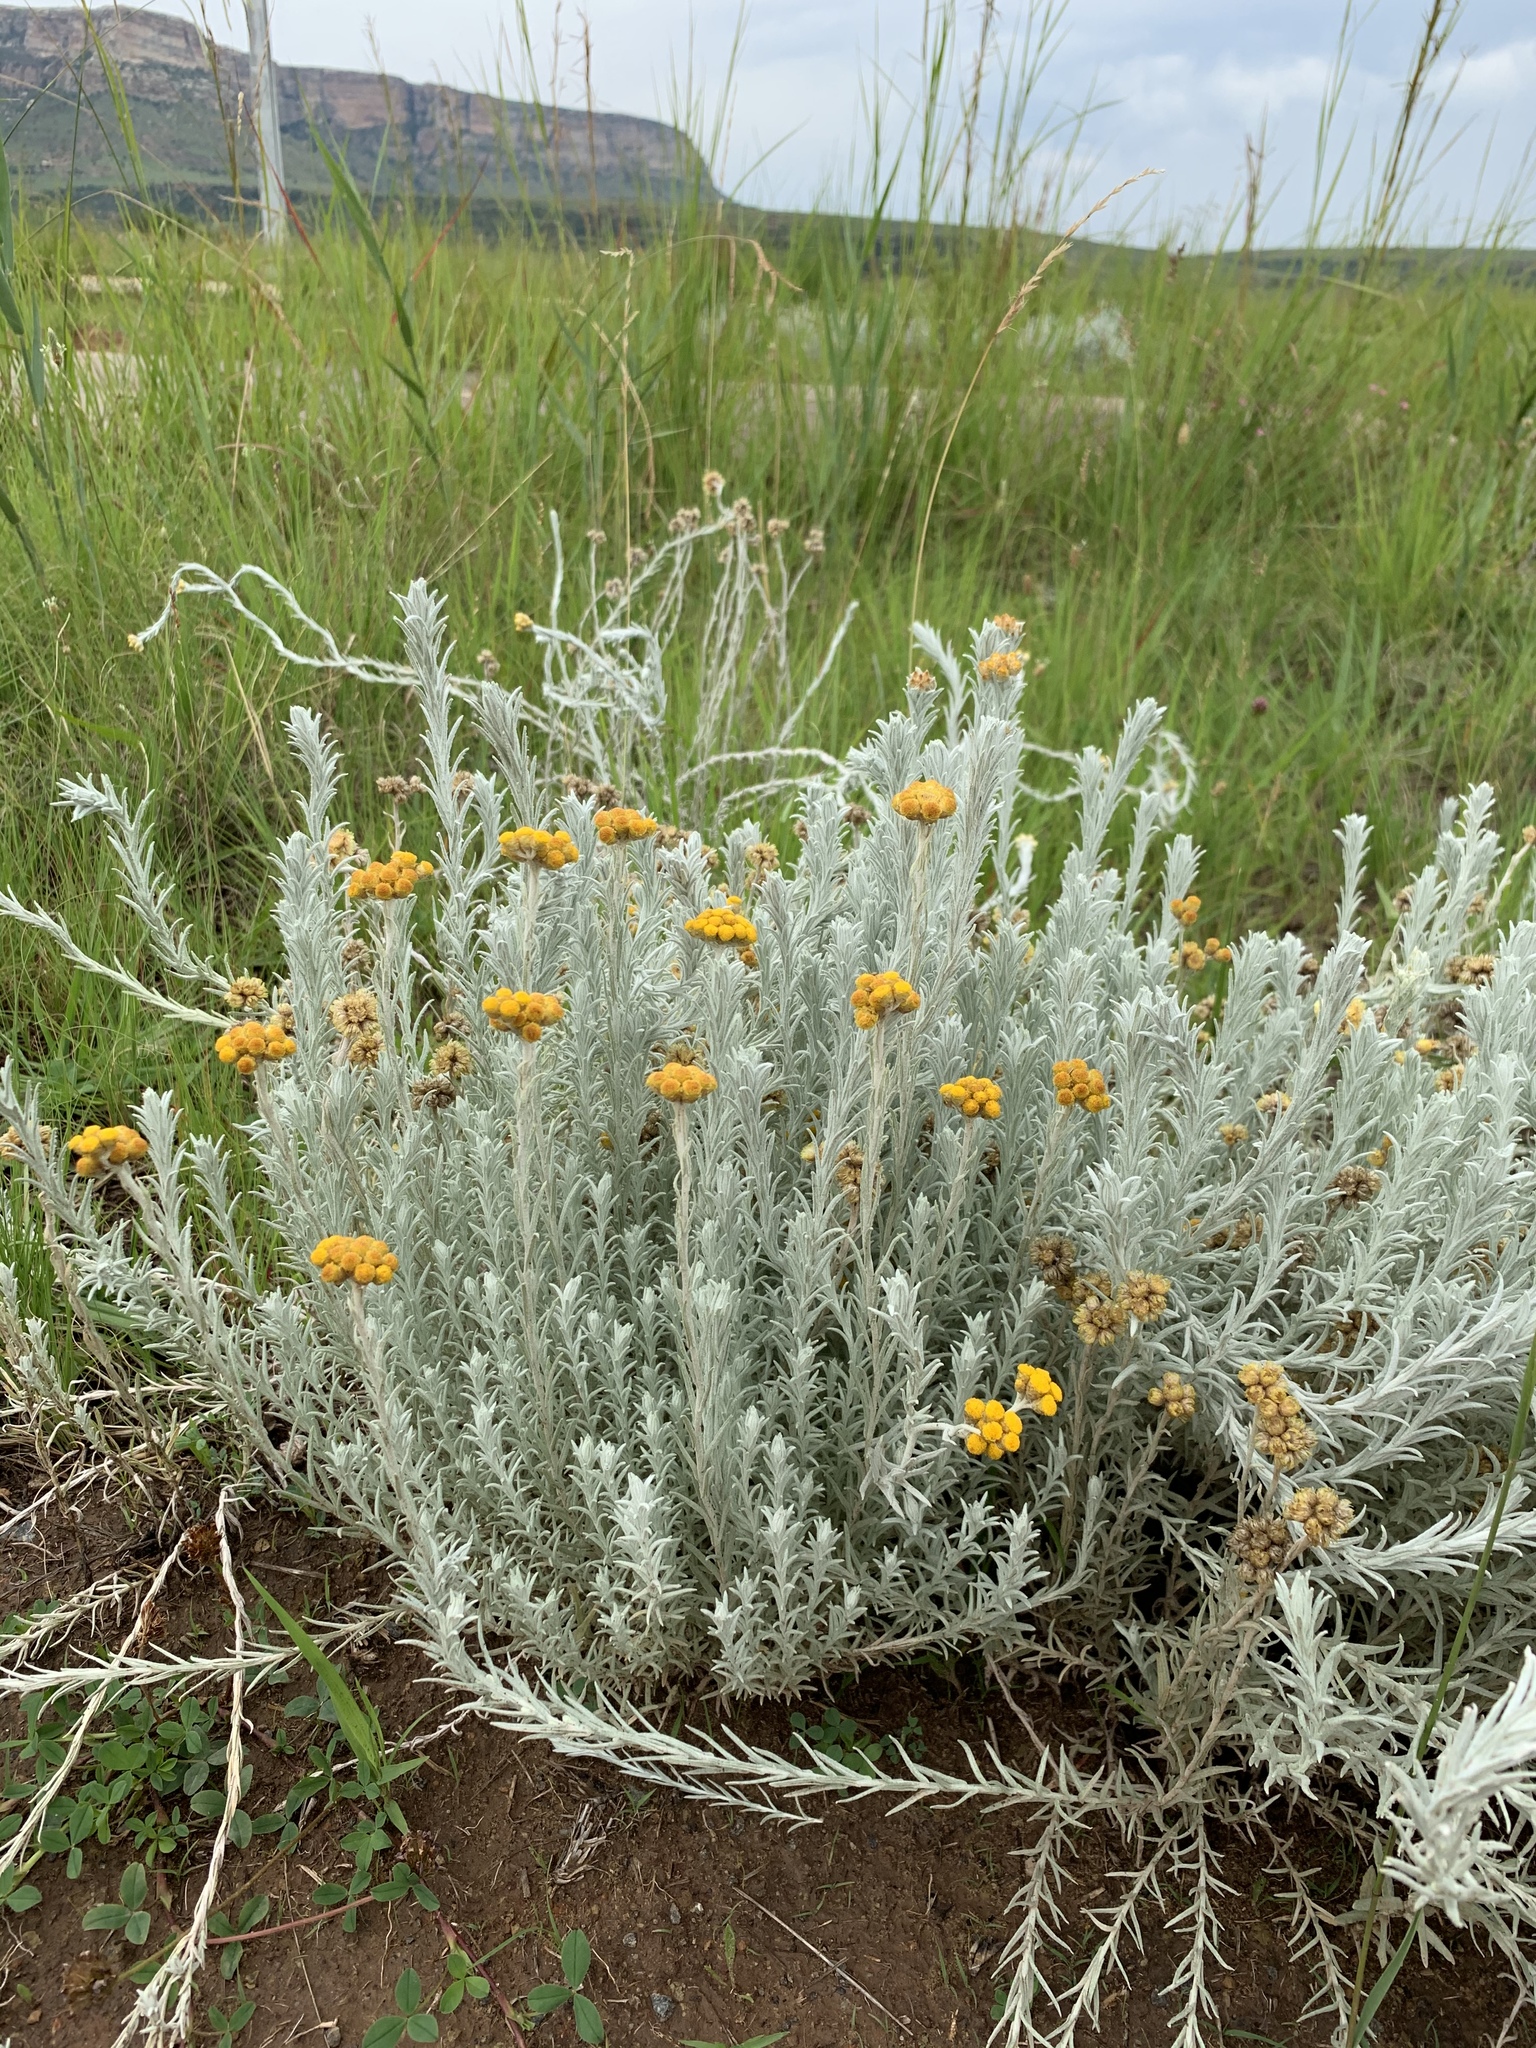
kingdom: Plantae
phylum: Tracheophyta
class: Magnoliopsida
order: Asterales
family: Asteraceae
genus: Helichrysum
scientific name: Helichrysum aureonitens
